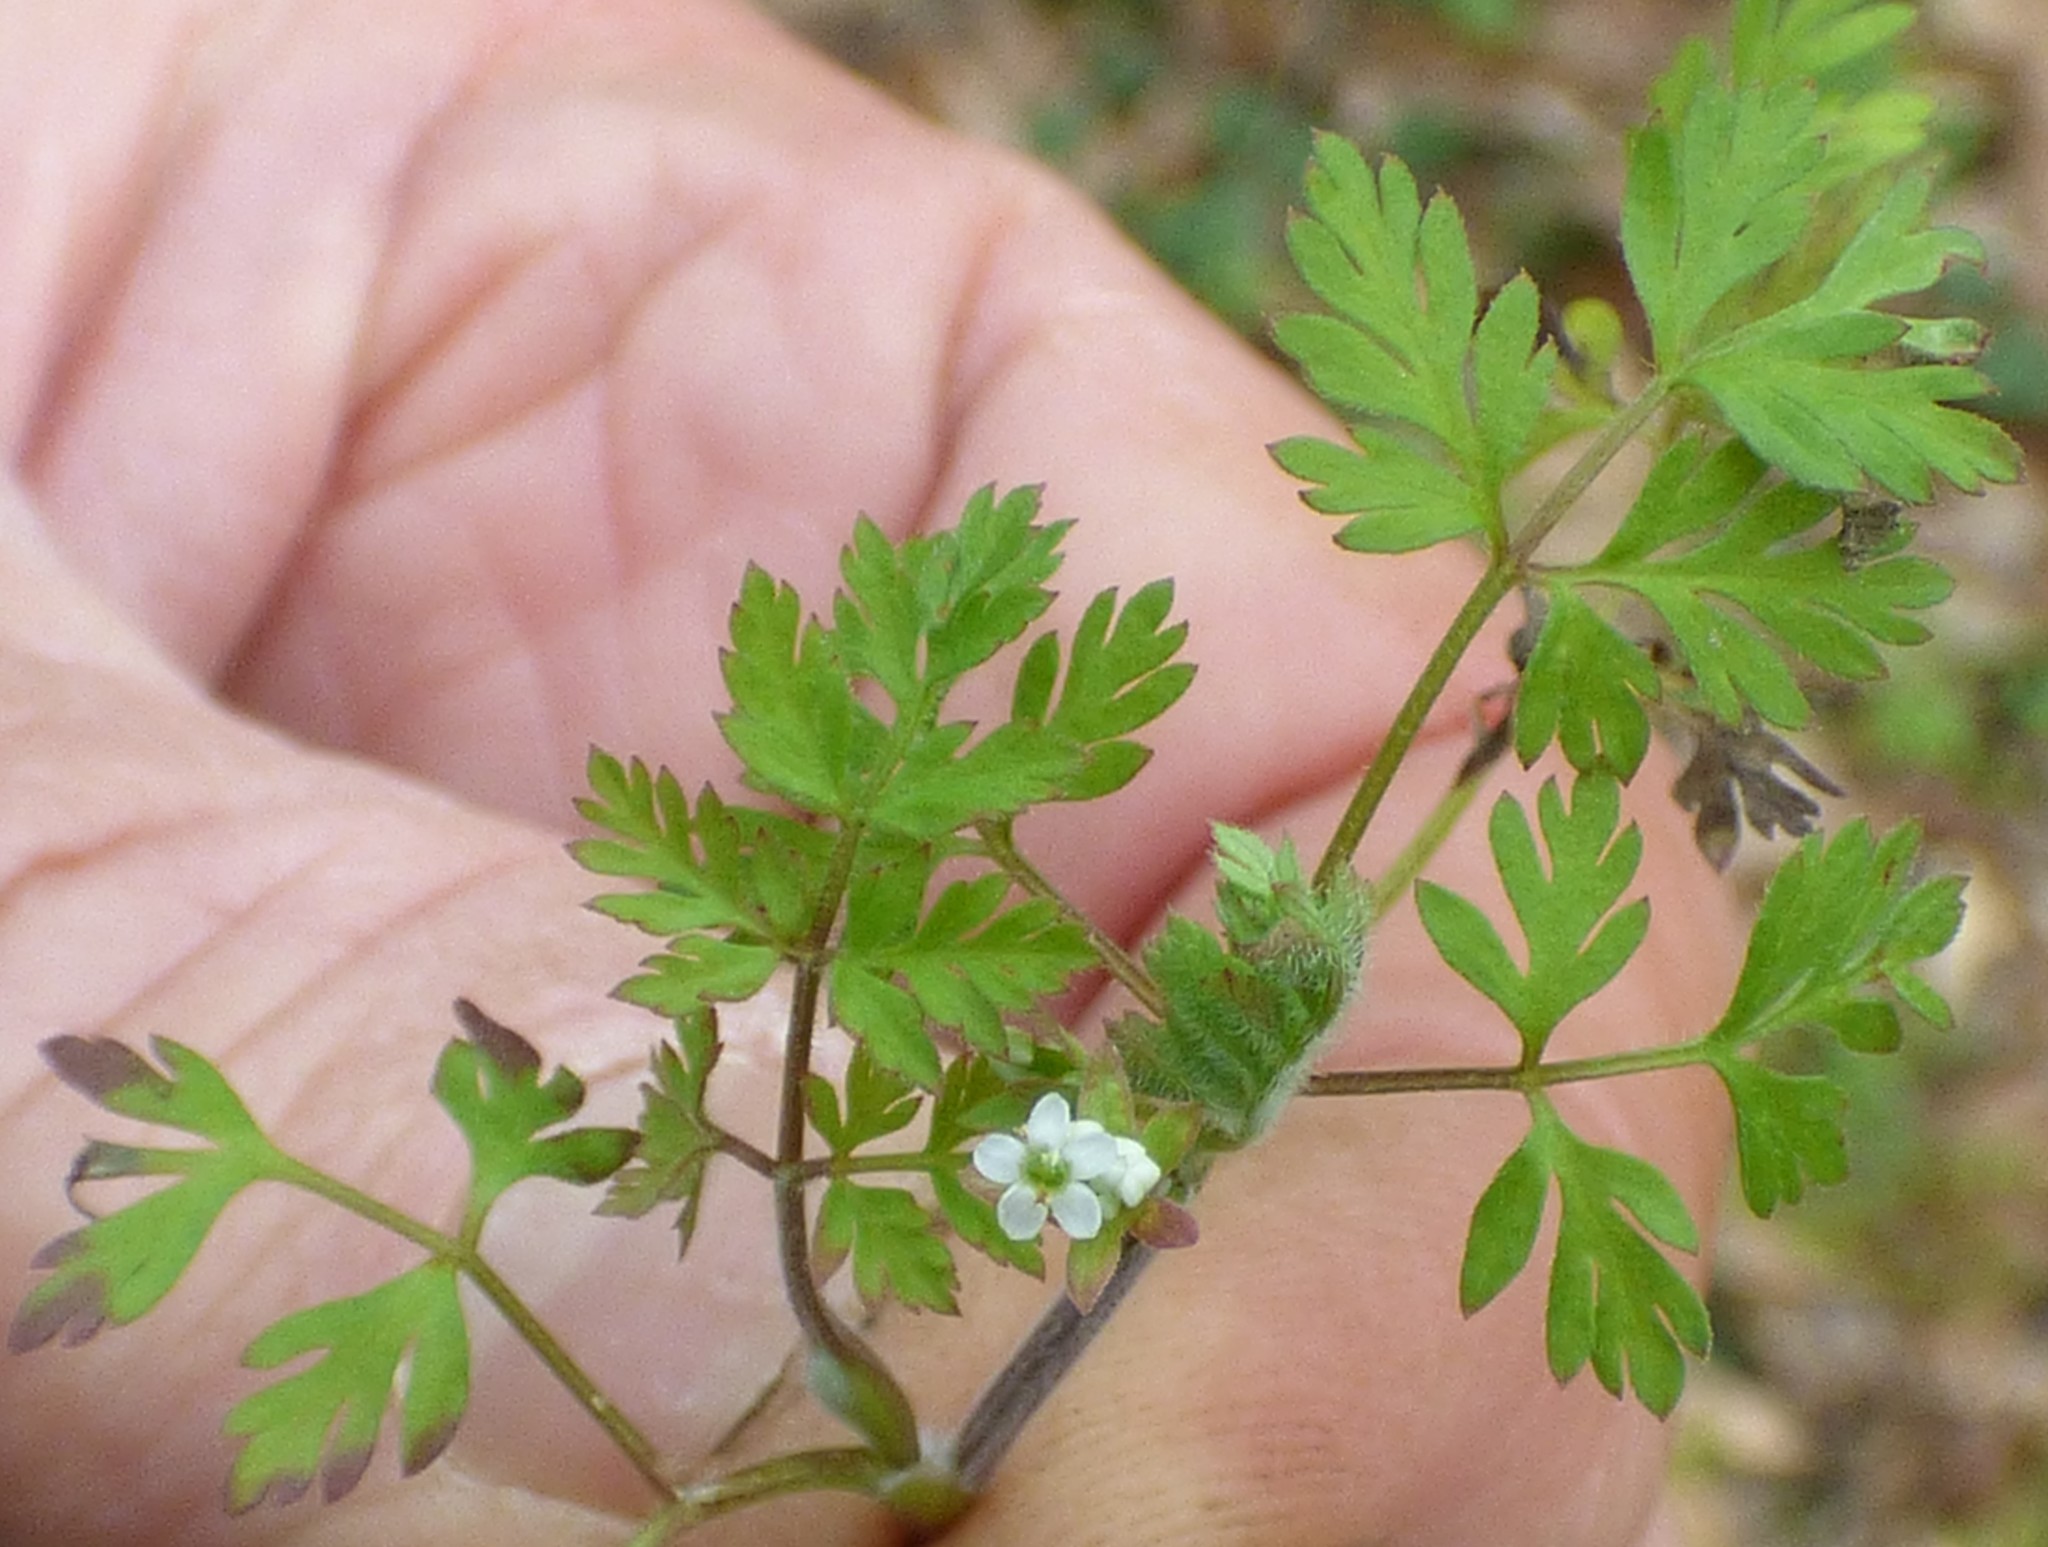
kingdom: Plantae
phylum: Tracheophyta
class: Magnoliopsida
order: Apiales
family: Apiaceae
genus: Chaerophyllum
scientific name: Chaerophyllum tainturieri
